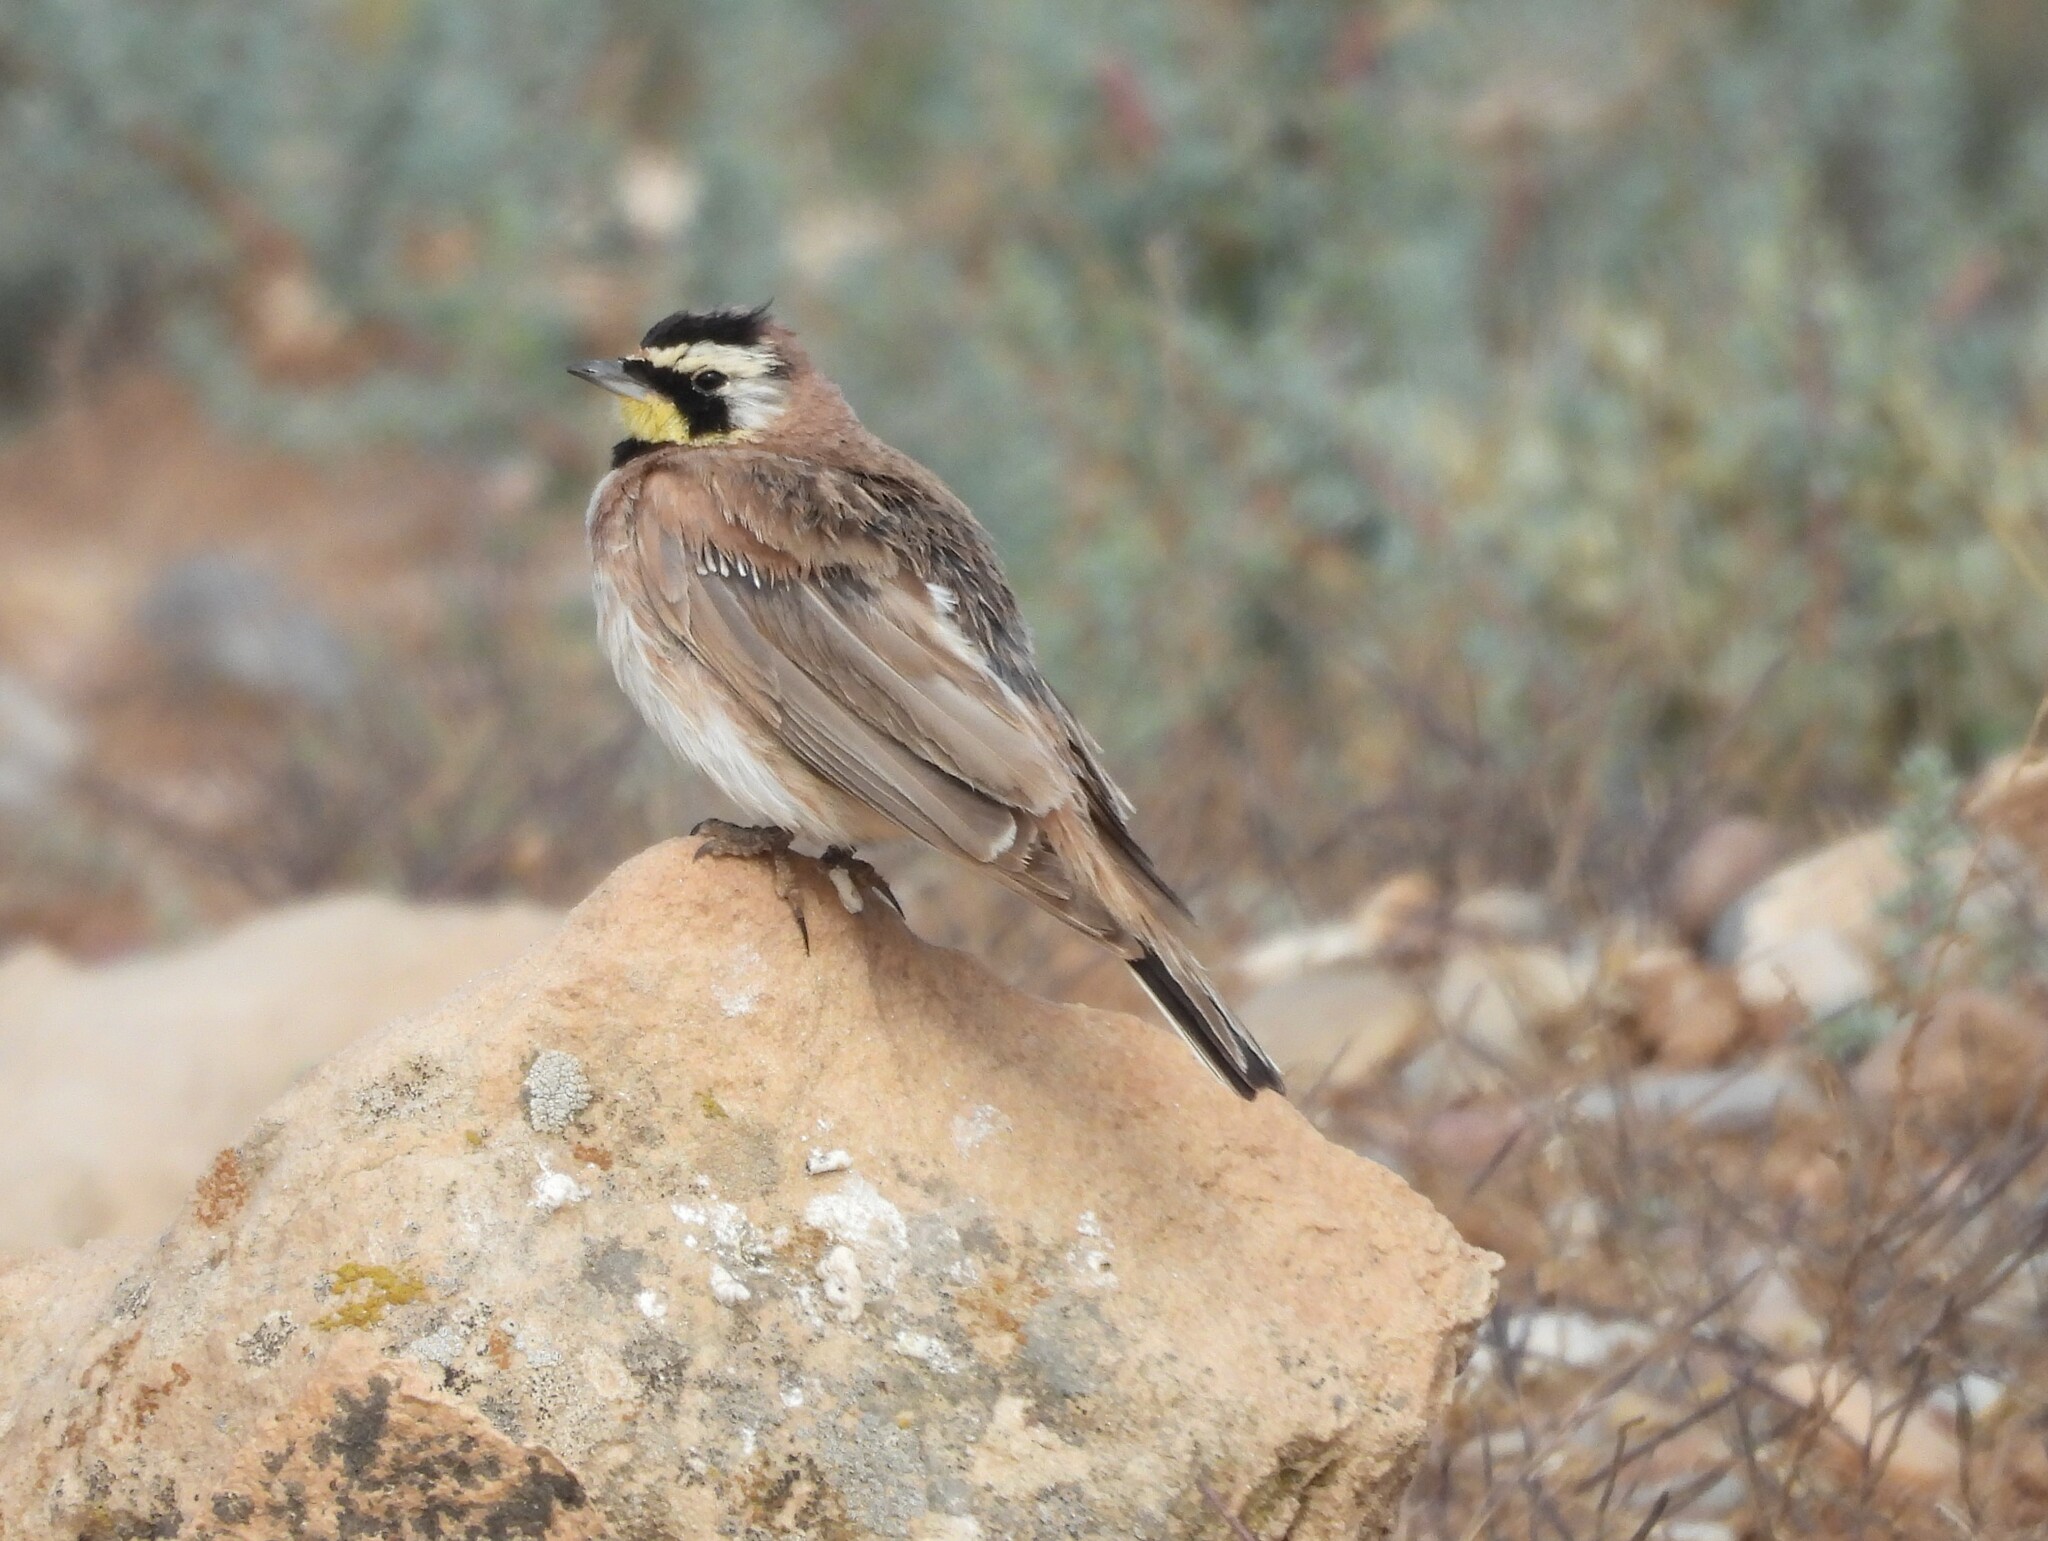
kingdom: Animalia
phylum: Chordata
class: Aves
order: Passeriformes
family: Alaudidae
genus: Eremophila
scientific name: Eremophila alpestris
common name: Horned lark
